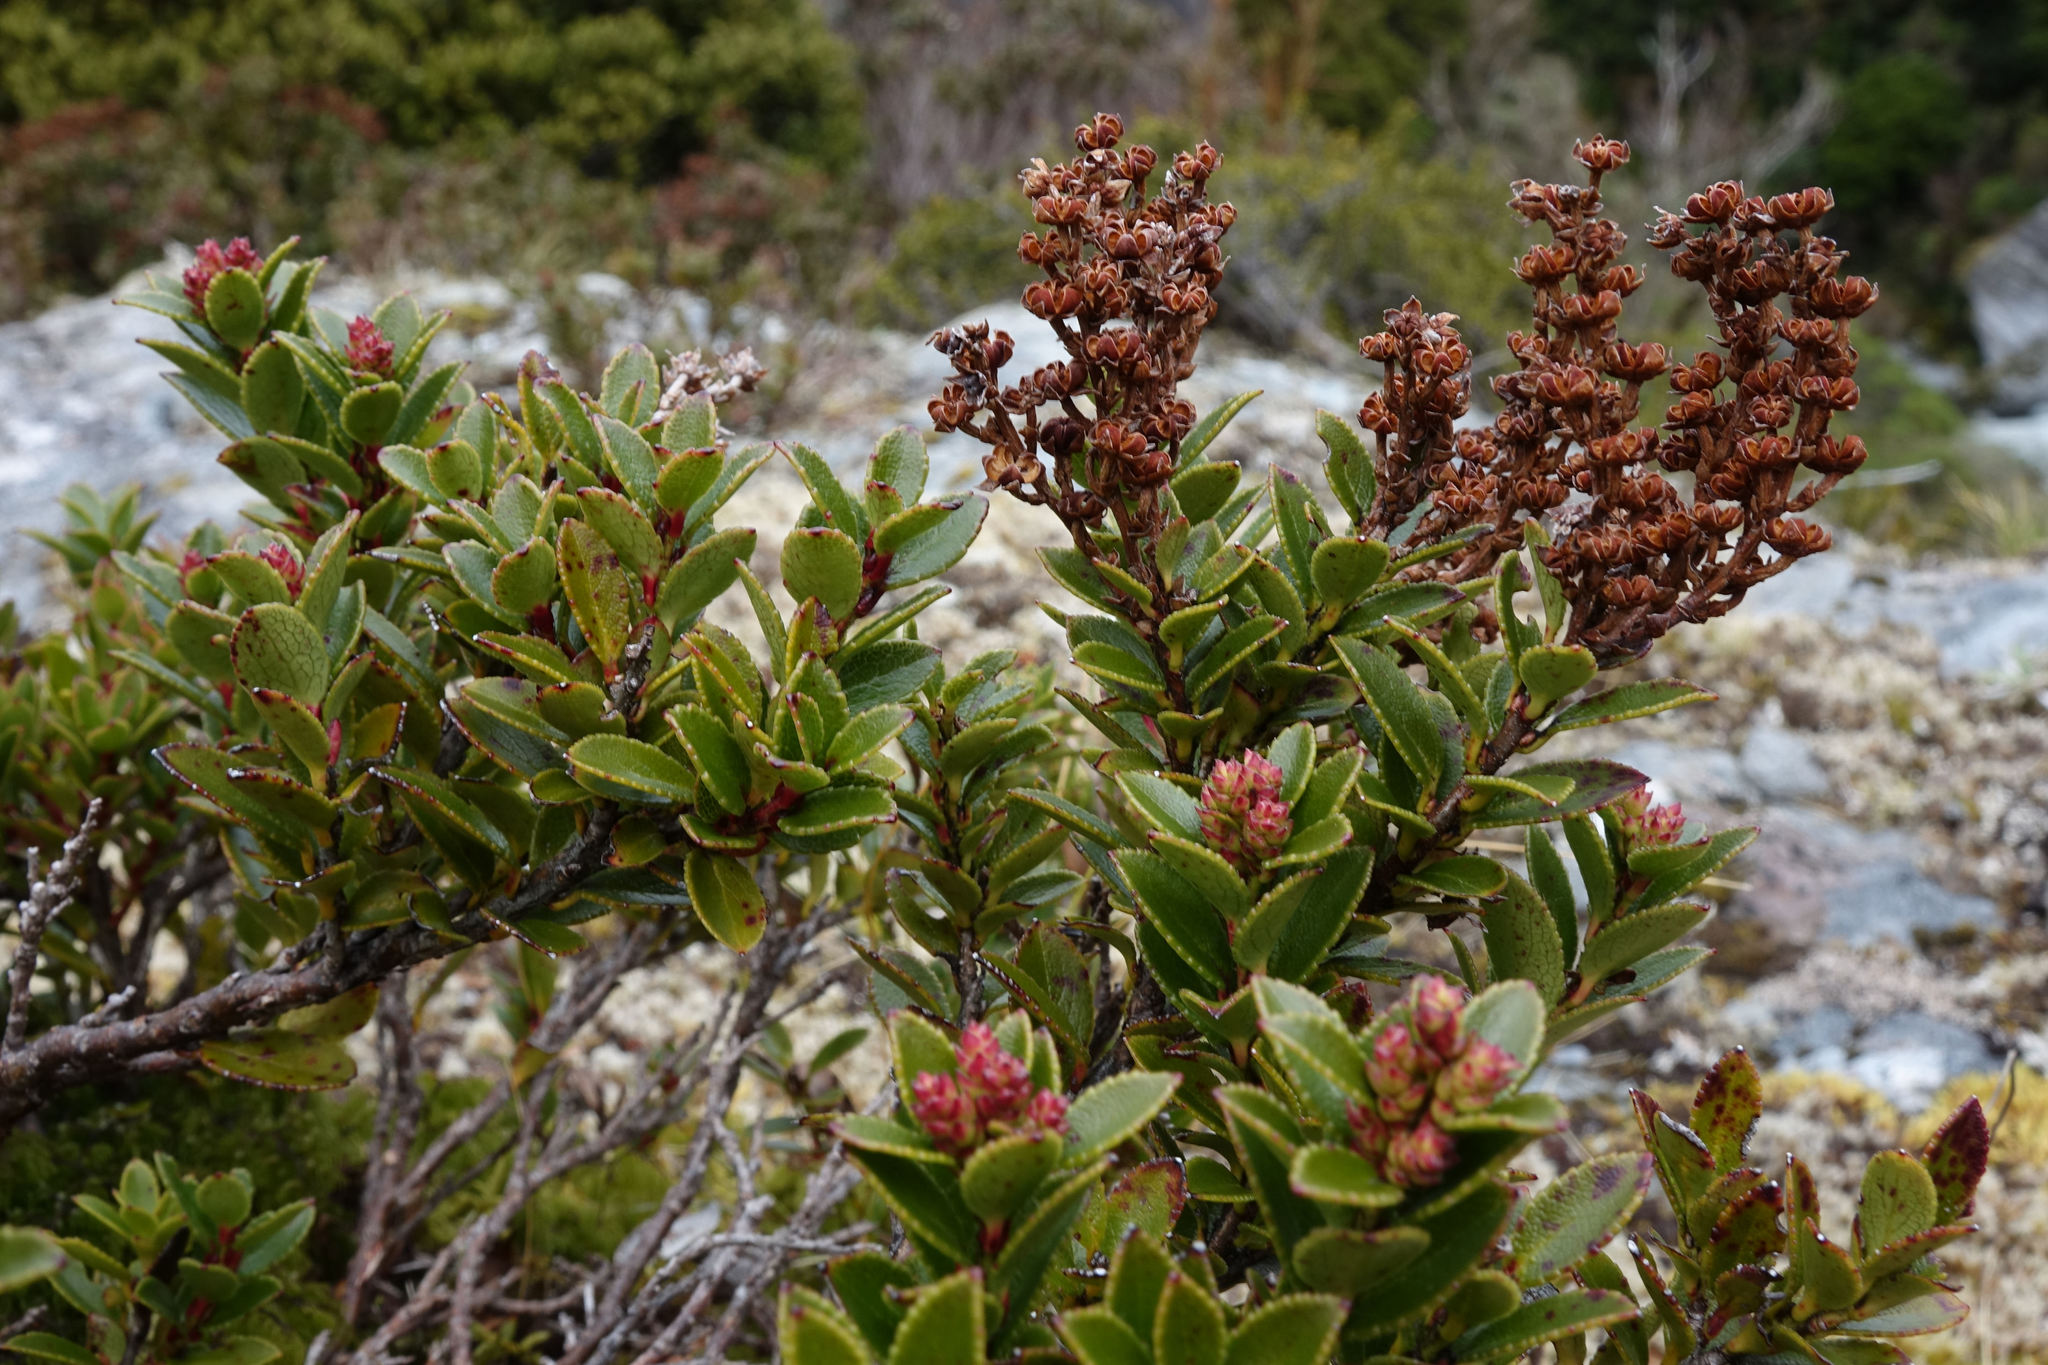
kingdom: Plantae
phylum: Tracheophyta
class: Magnoliopsida
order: Ericales
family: Ericaceae
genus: Gaultheria
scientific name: Gaultheria crassa
